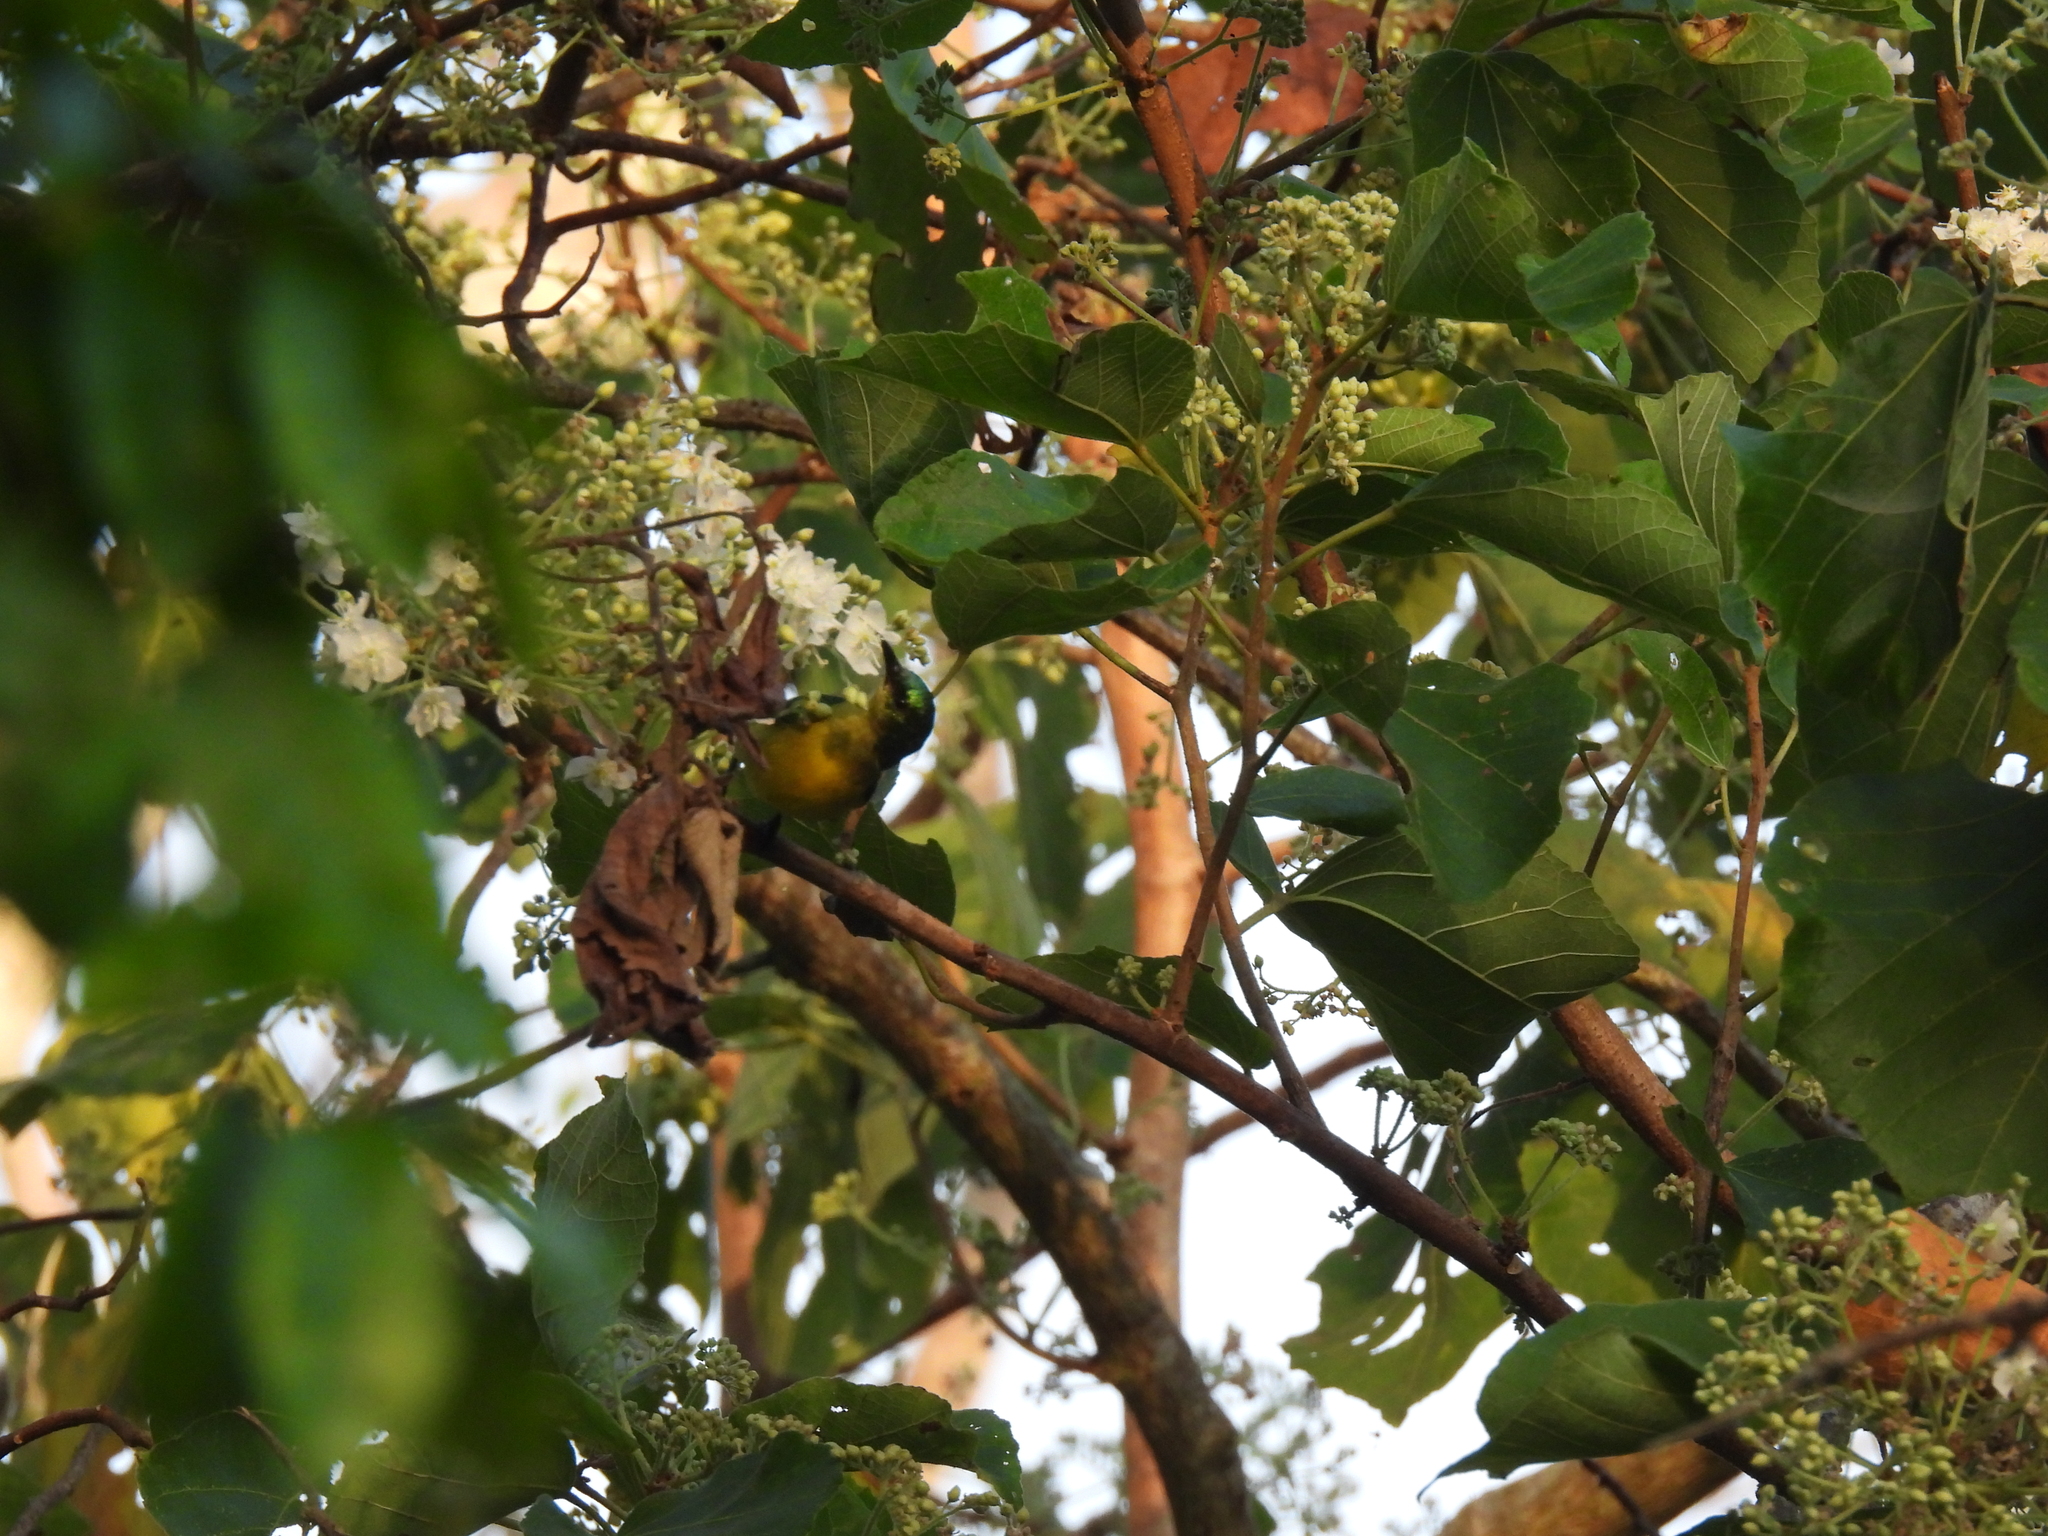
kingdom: Animalia
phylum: Chordata
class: Aves
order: Passeriformes
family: Nectariniidae
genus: Hedydipna
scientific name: Hedydipna collaris
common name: Collared sunbird
